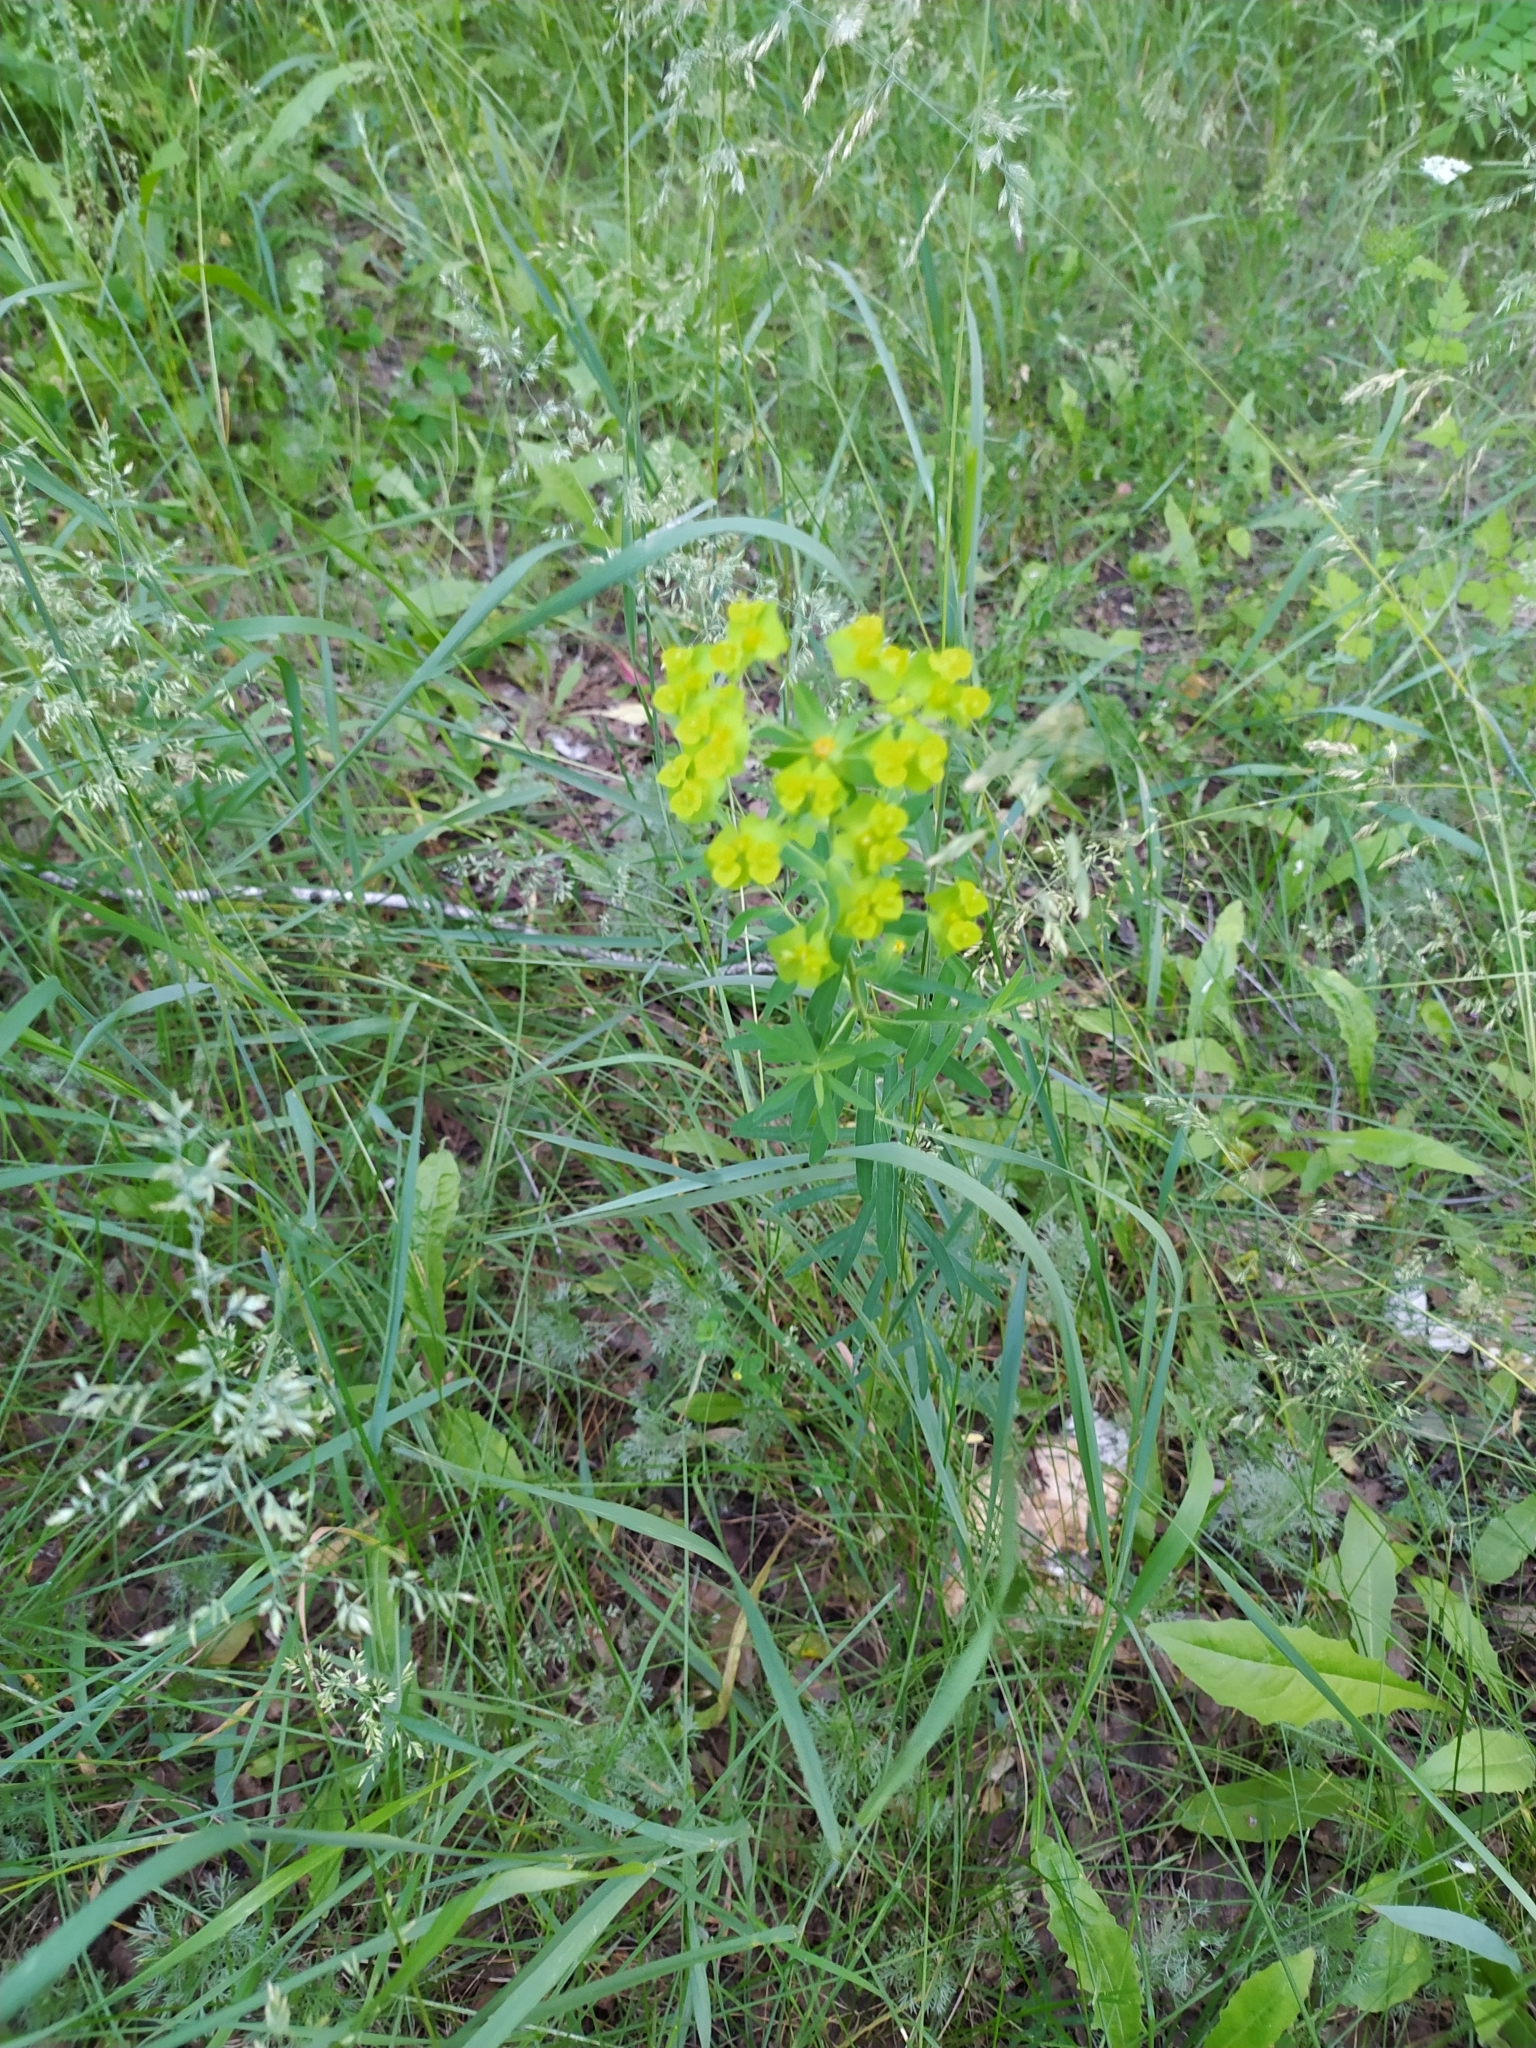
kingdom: Plantae
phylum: Tracheophyta
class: Magnoliopsida
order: Malpighiales
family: Euphorbiaceae
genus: Euphorbia
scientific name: Euphorbia virgata
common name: Leafy spurge
